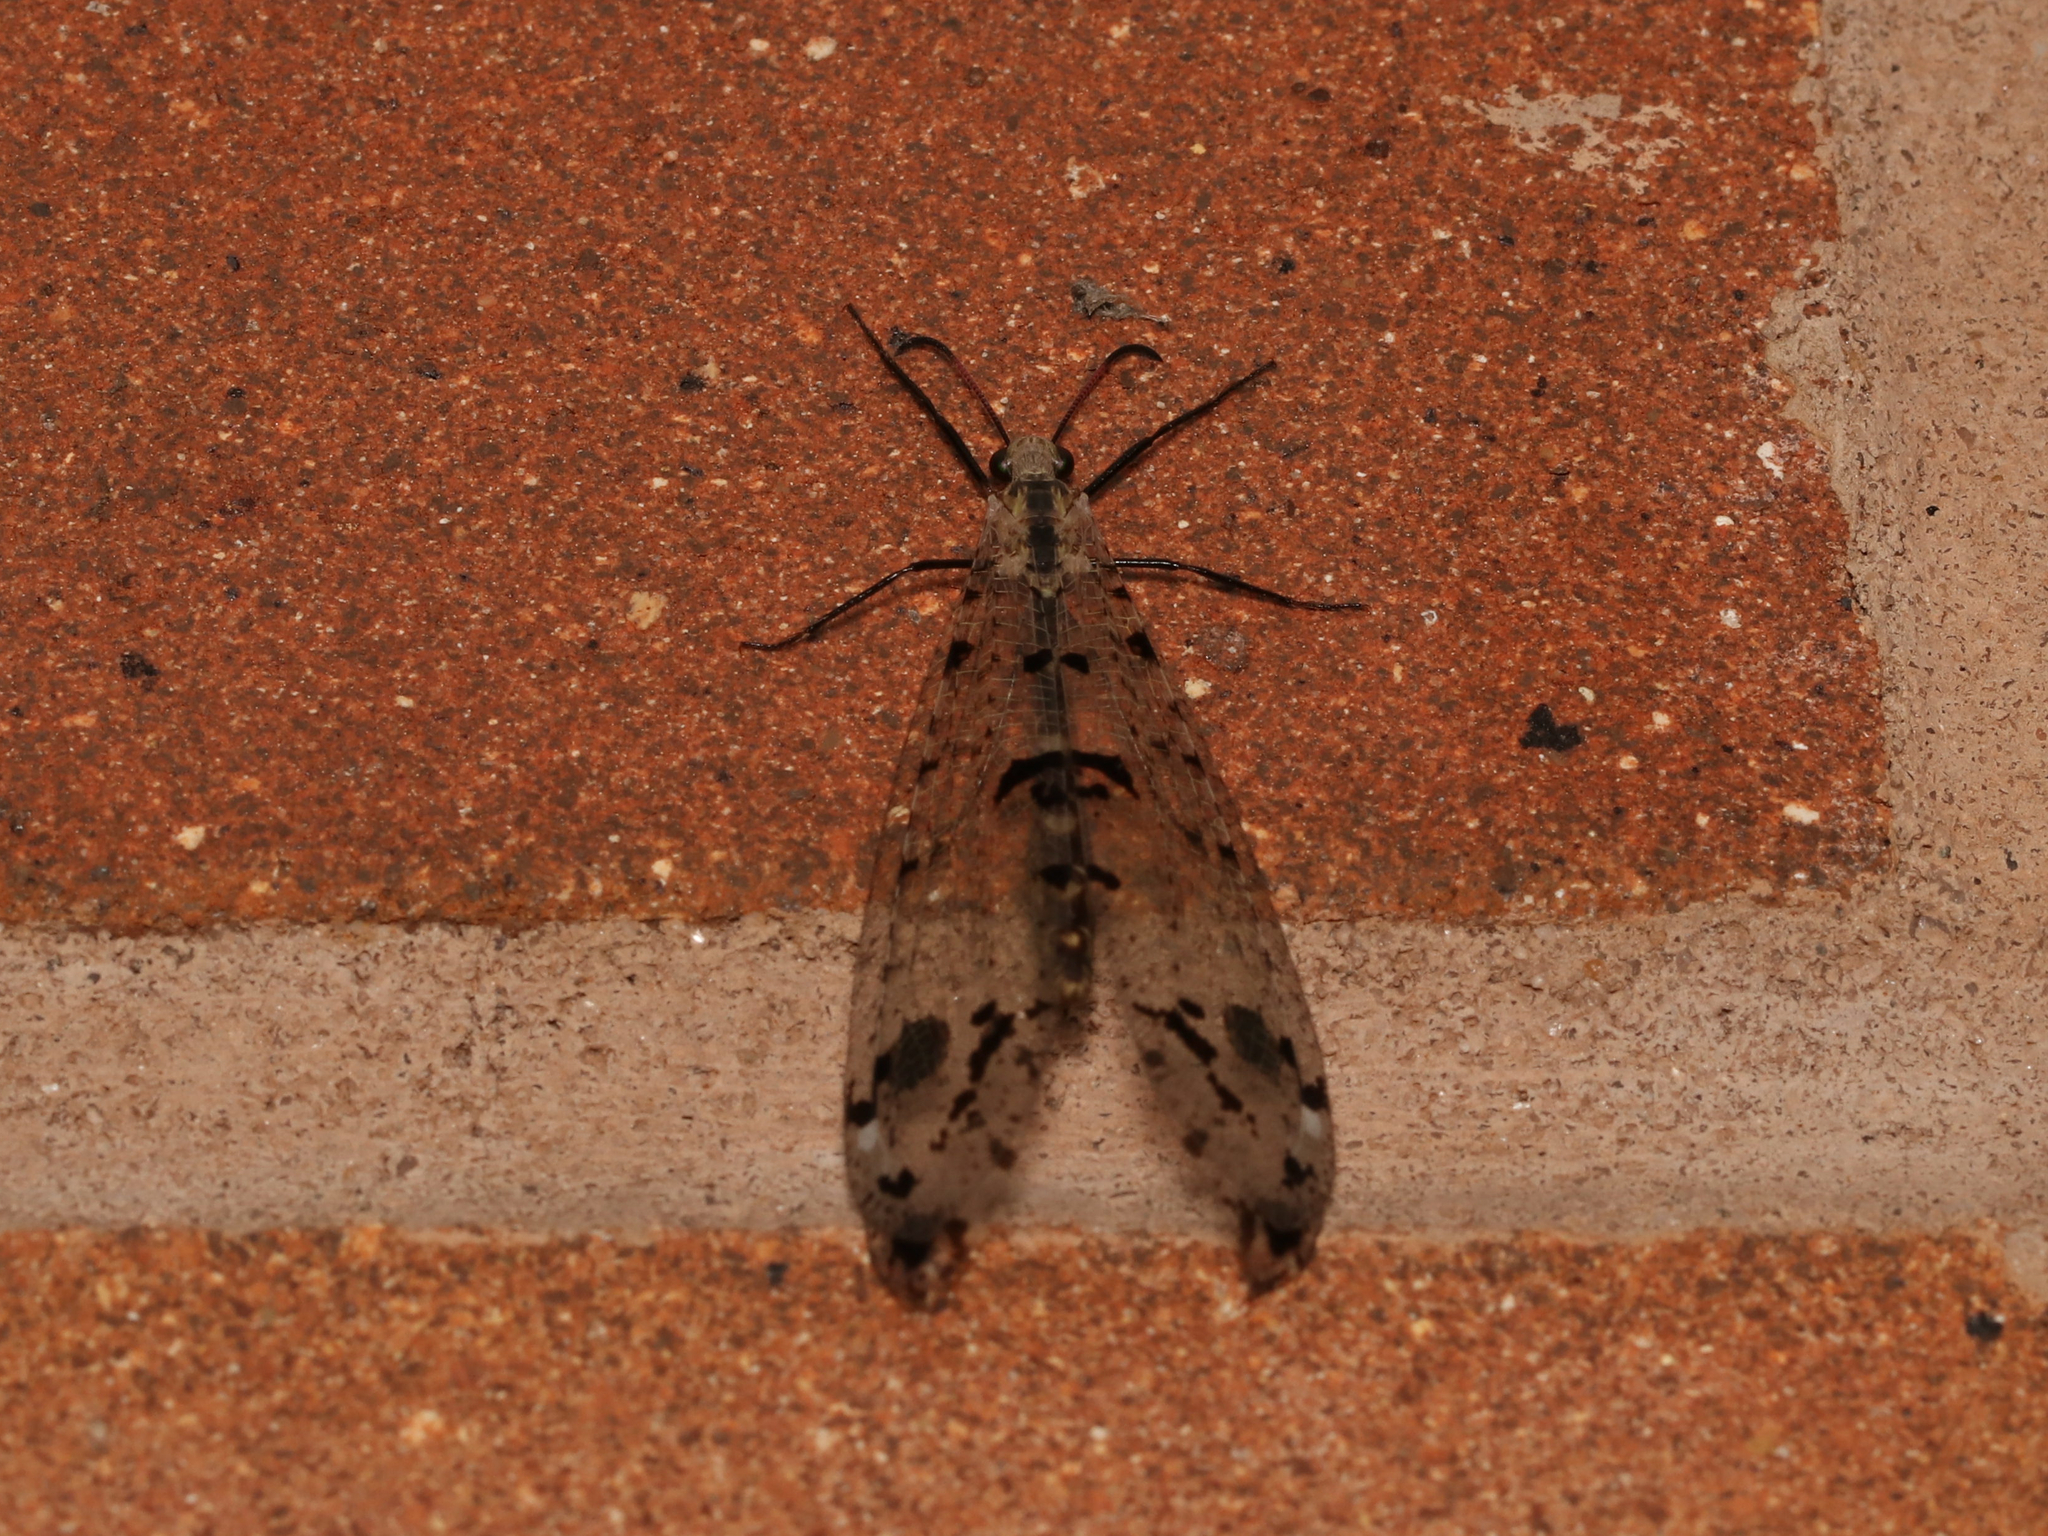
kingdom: Animalia
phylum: Arthropoda
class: Insecta
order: Neuroptera
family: Myrmeleontidae
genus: Dendroleon
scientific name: Dendroleon obsoletus
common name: Eastern spotted-winged antlion
